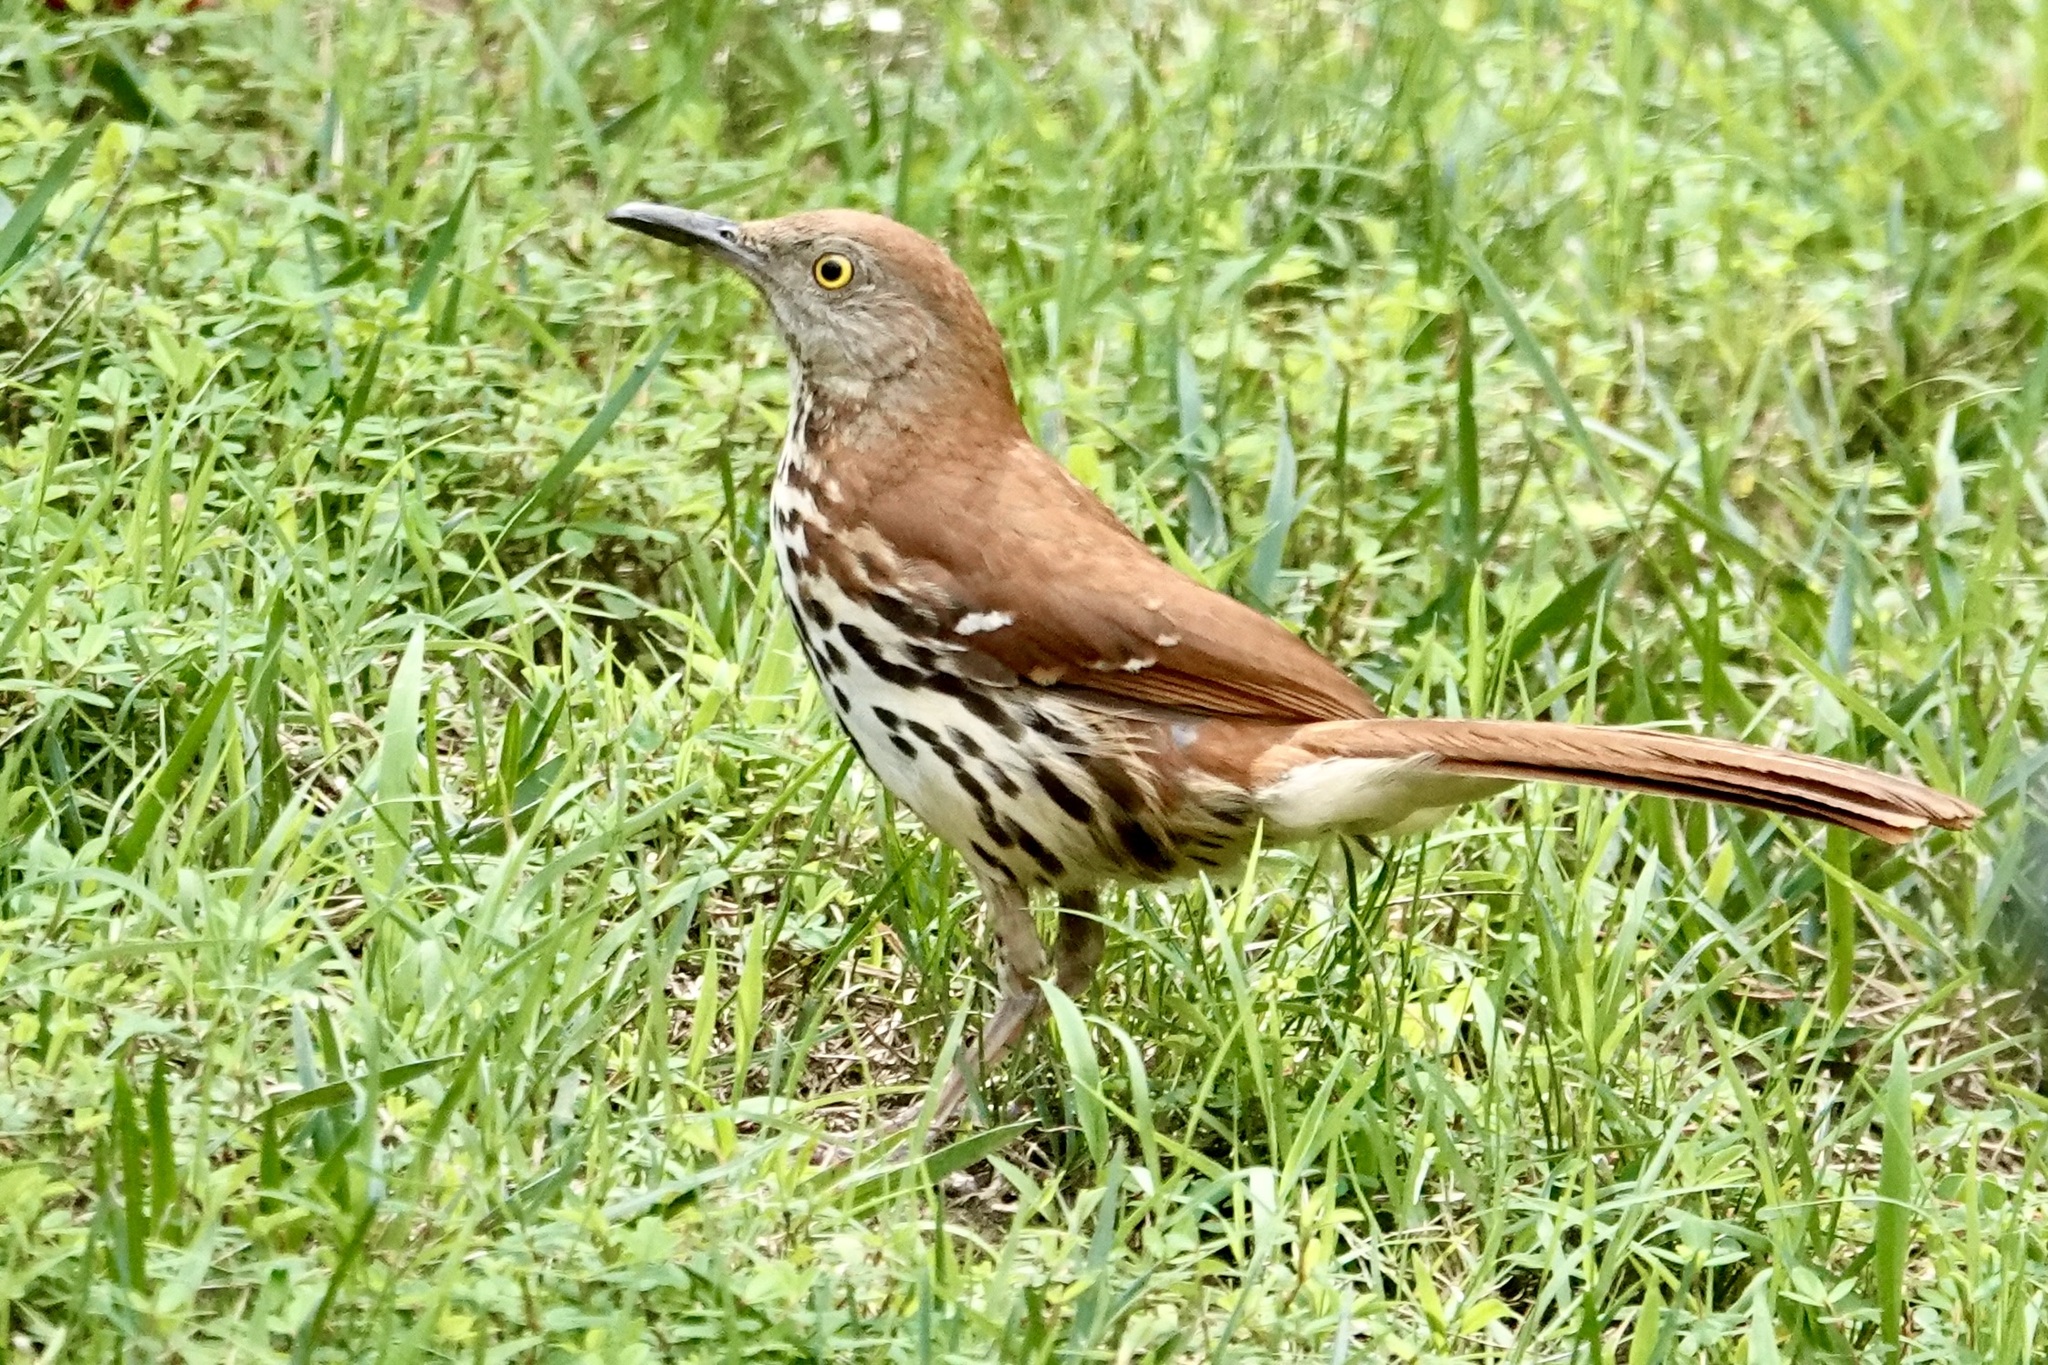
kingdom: Animalia
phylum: Chordata
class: Aves
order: Passeriformes
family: Mimidae
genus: Toxostoma
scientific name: Toxostoma rufum
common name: Brown thrasher
